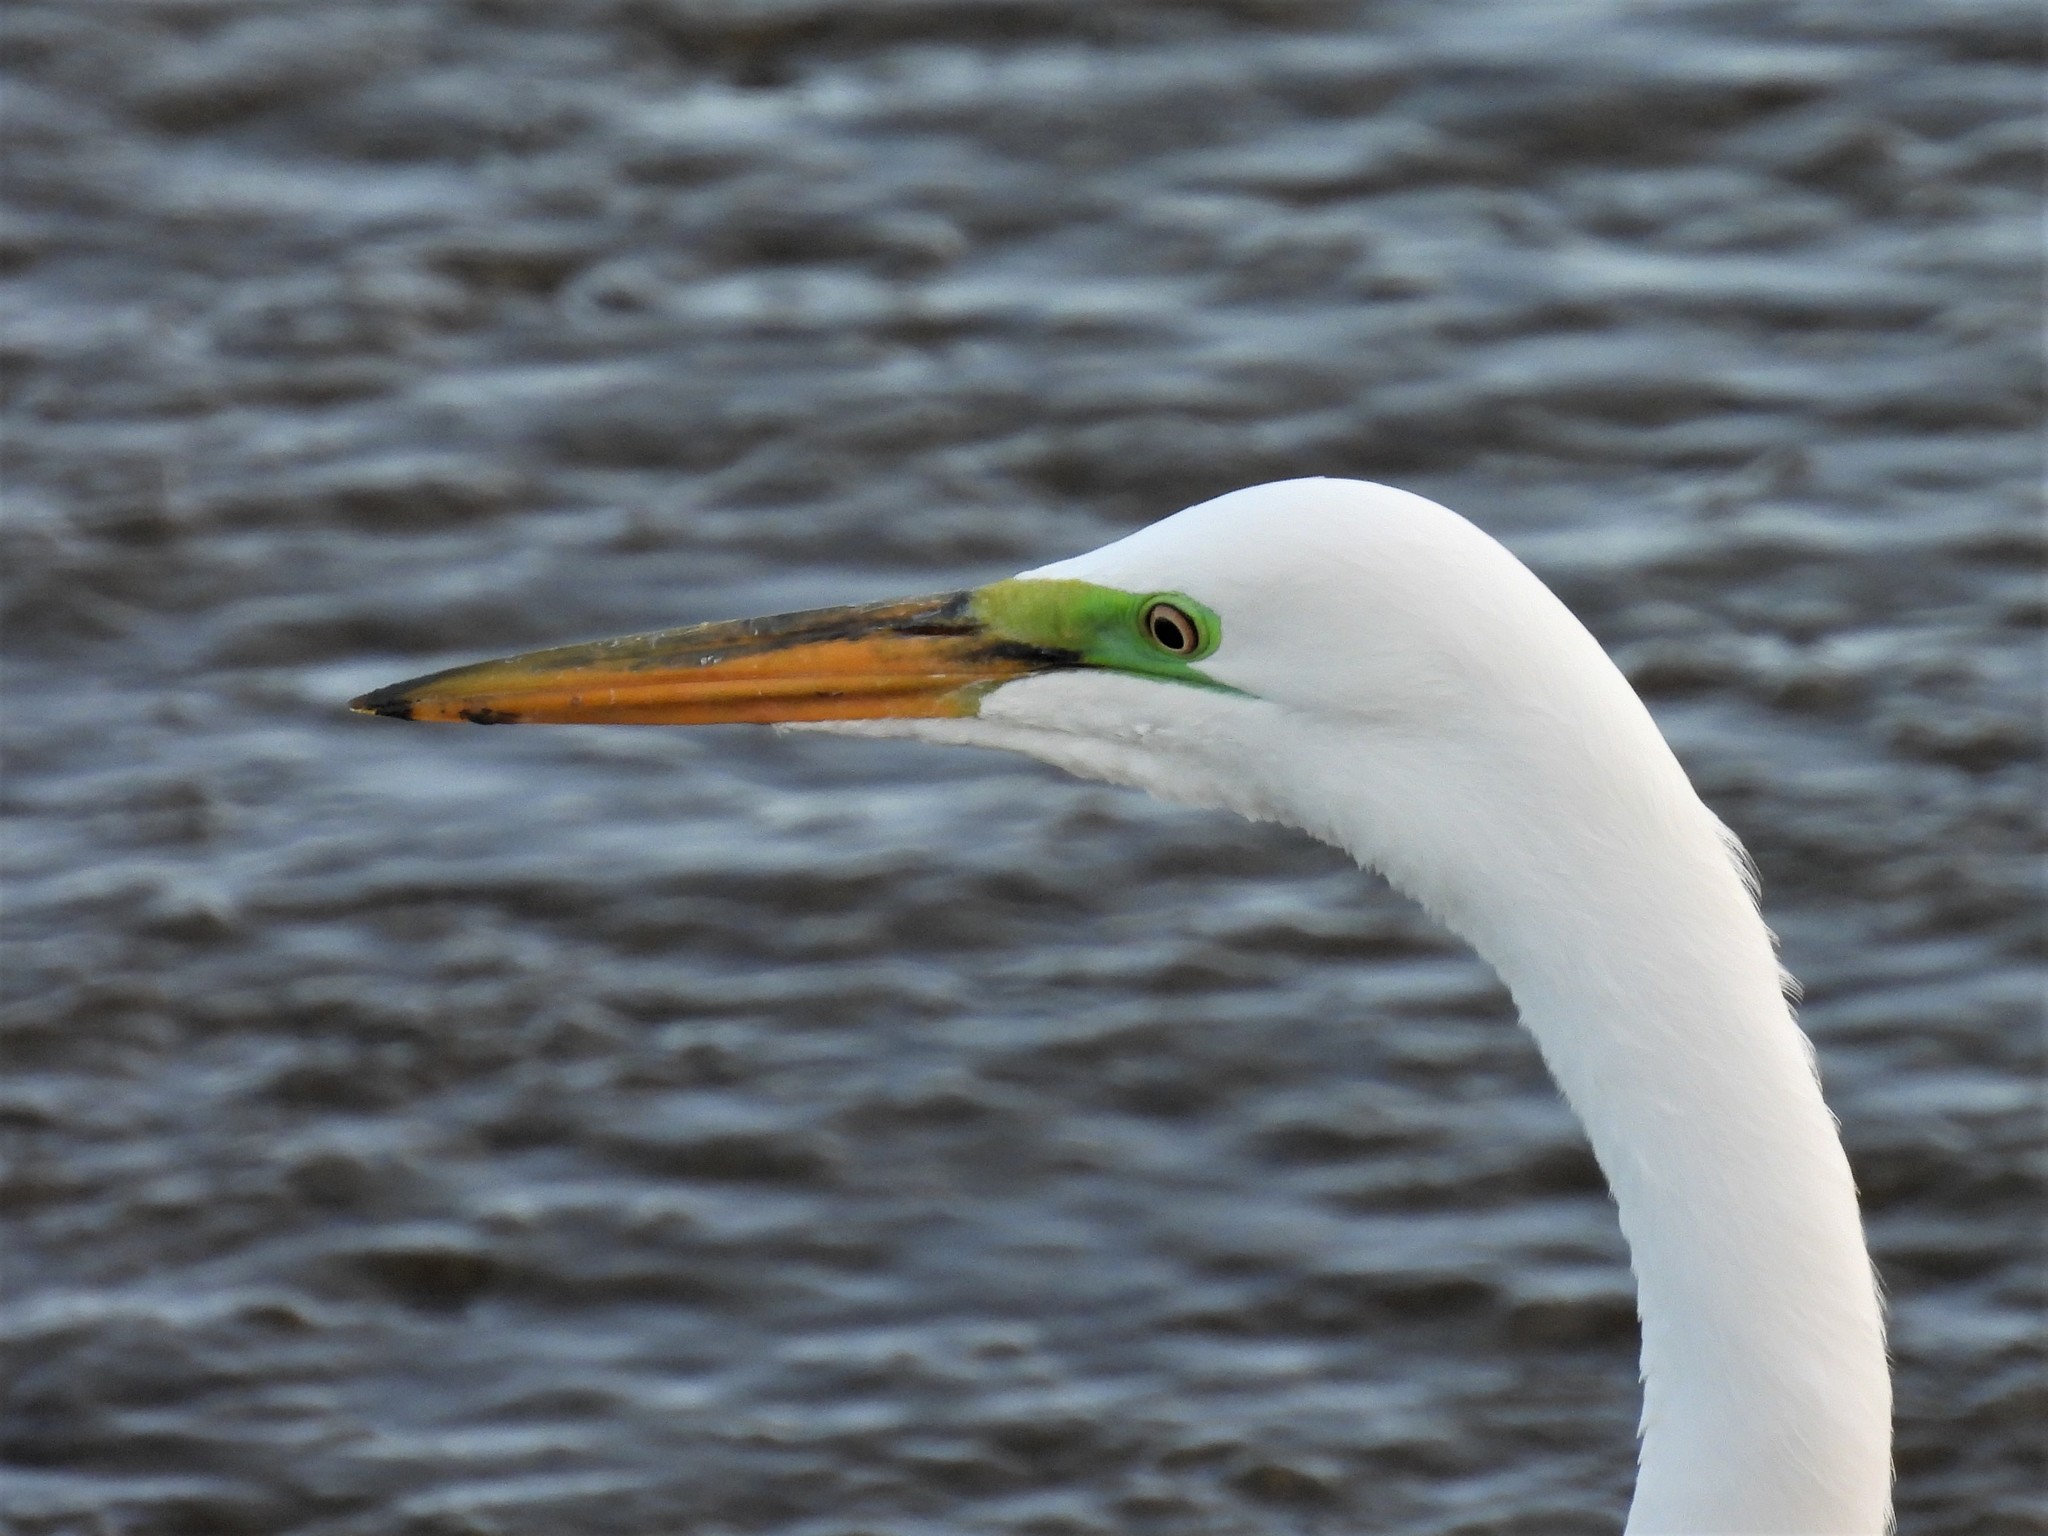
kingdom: Animalia
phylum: Chordata
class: Aves
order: Pelecaniformes
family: Ardeidae
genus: Ardea
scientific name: Ardea alba
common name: Great egret
